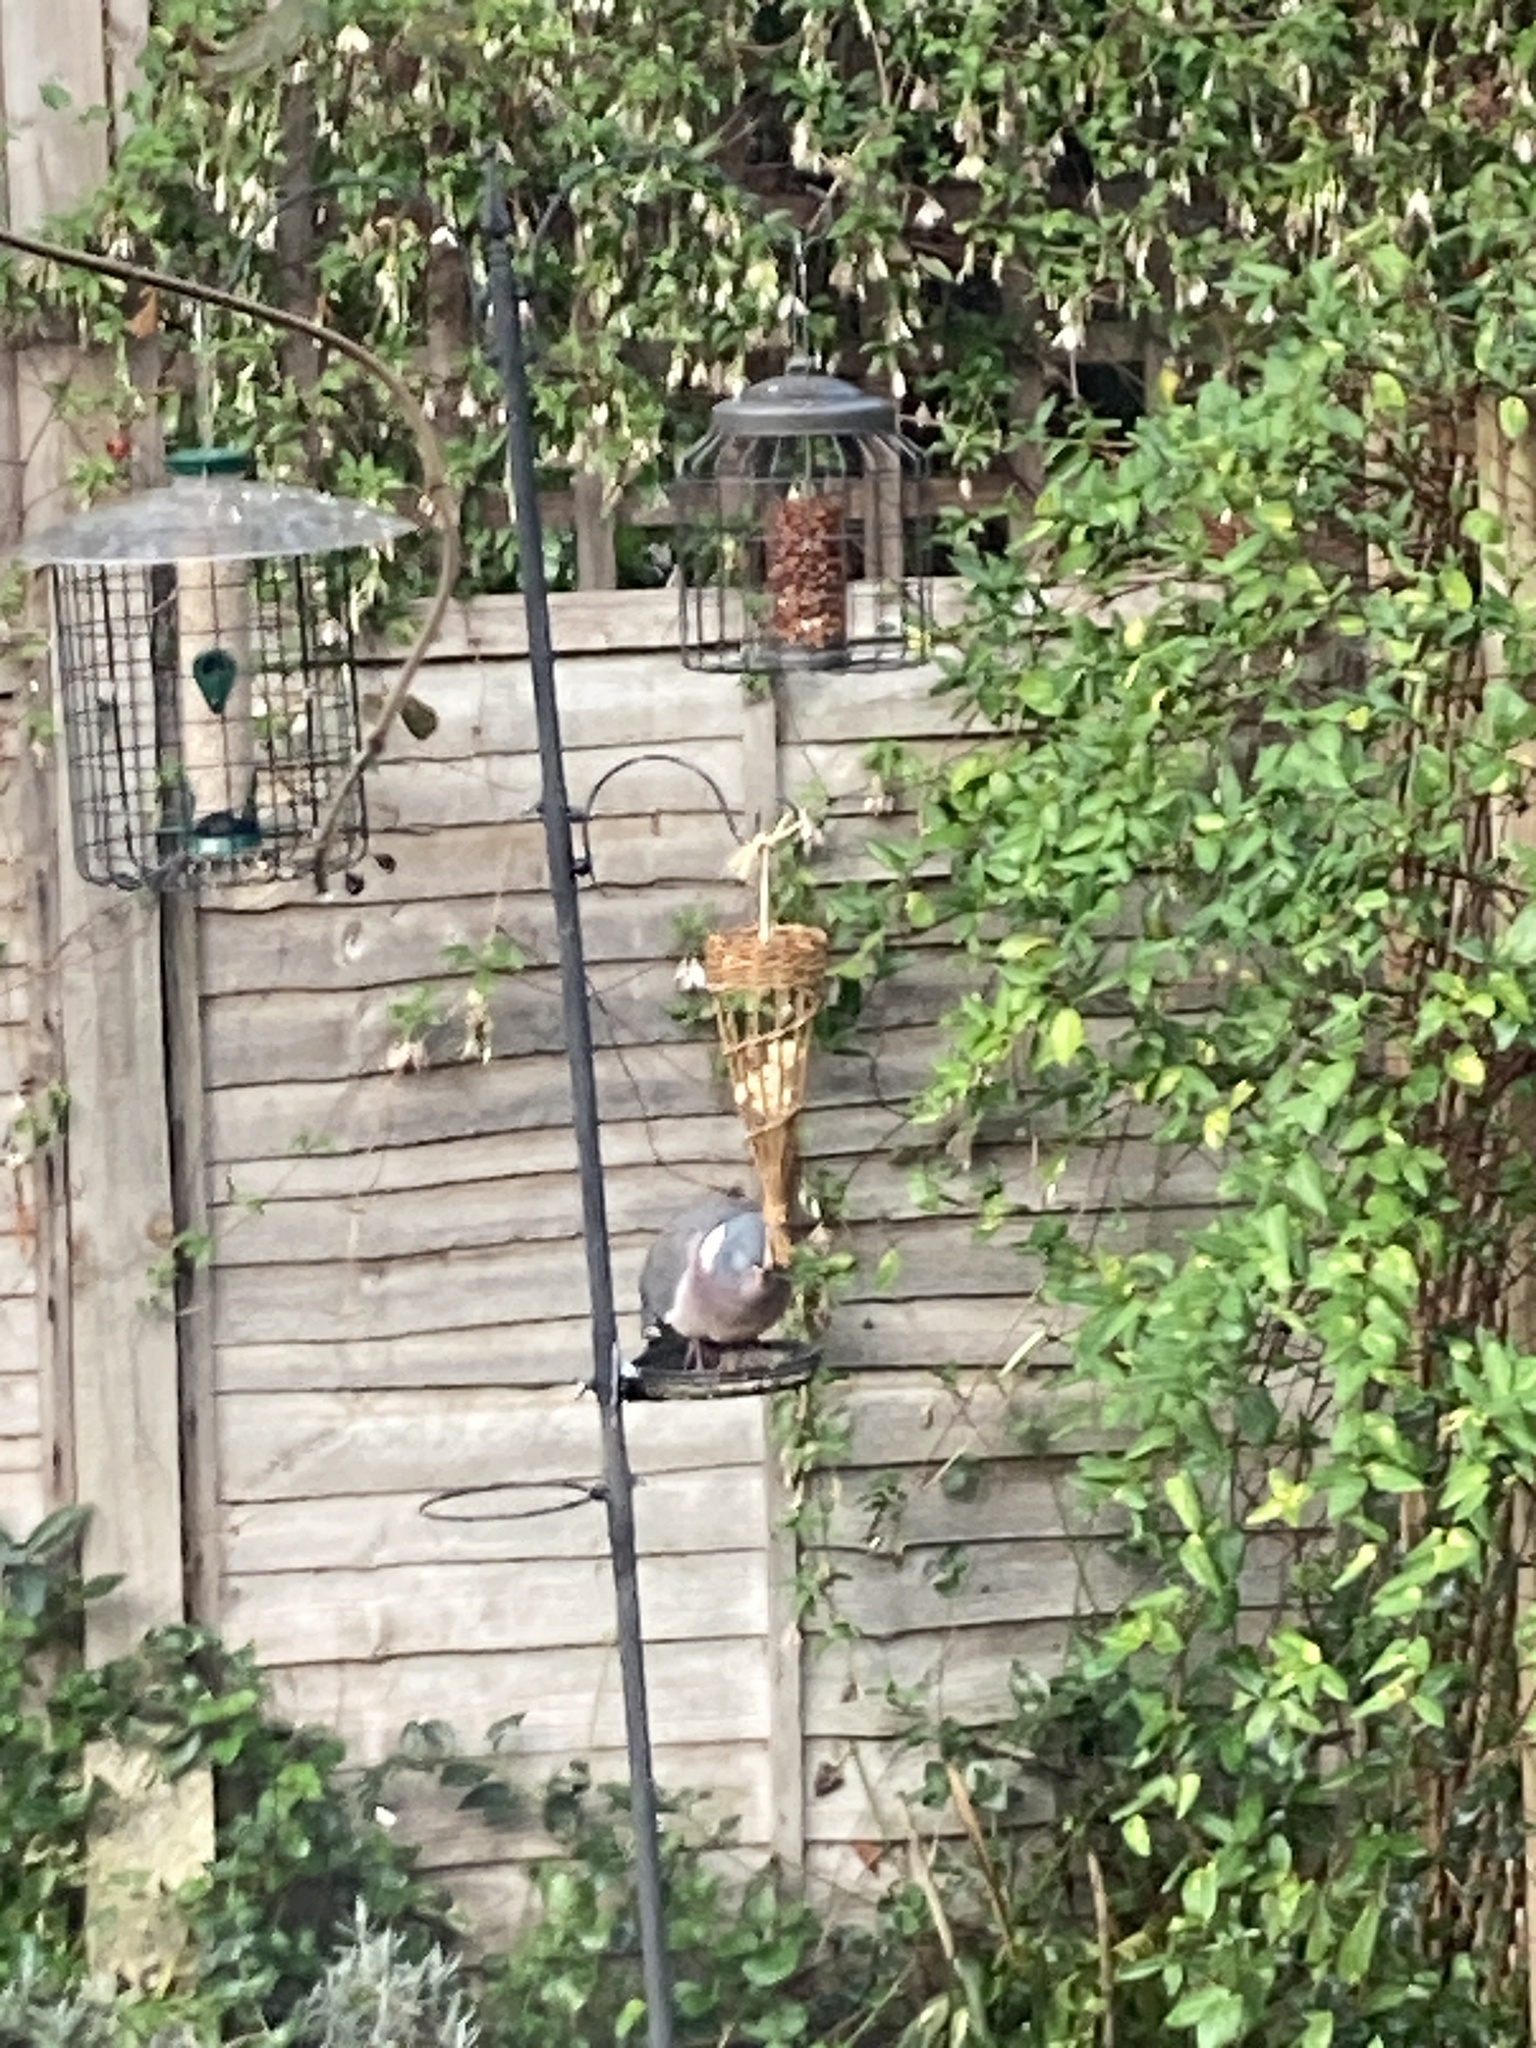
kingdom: Animalia
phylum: Chordata
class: Aves
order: Columbiformes
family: Columbidae
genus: Columba
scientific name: Columba palumbus
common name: Common wood pigeon
